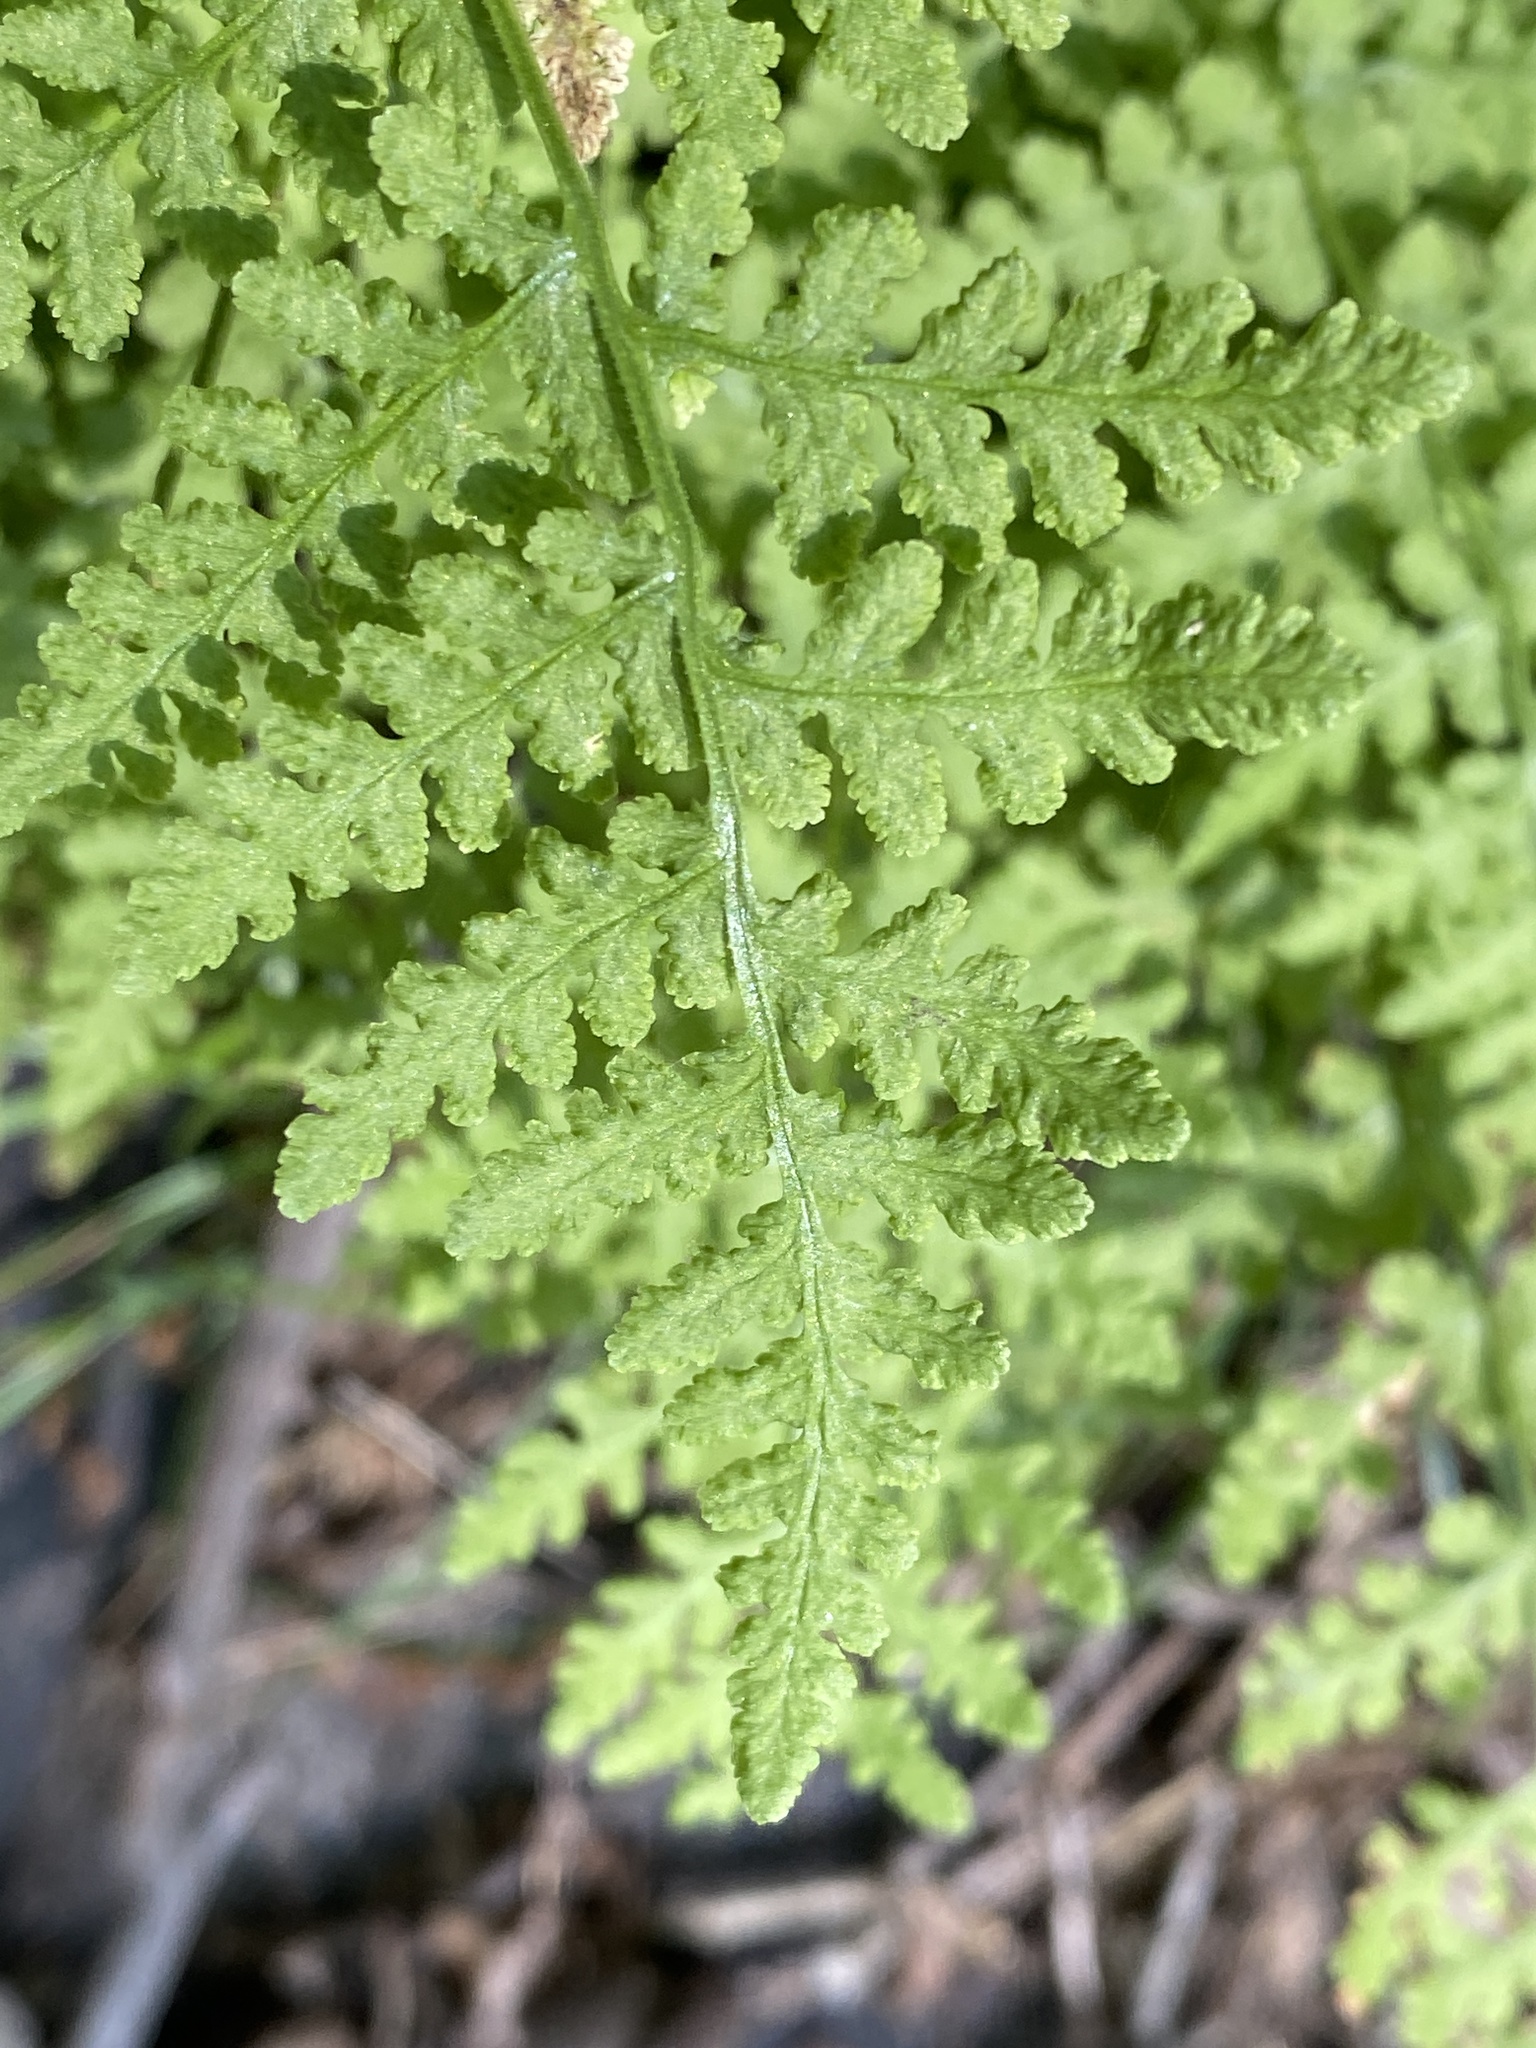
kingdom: Plantae
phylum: Tracheophyta
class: Polypodiopsida
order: Polypodiales
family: Woodsiaceae
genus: Physematium
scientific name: Physematium obtusum
